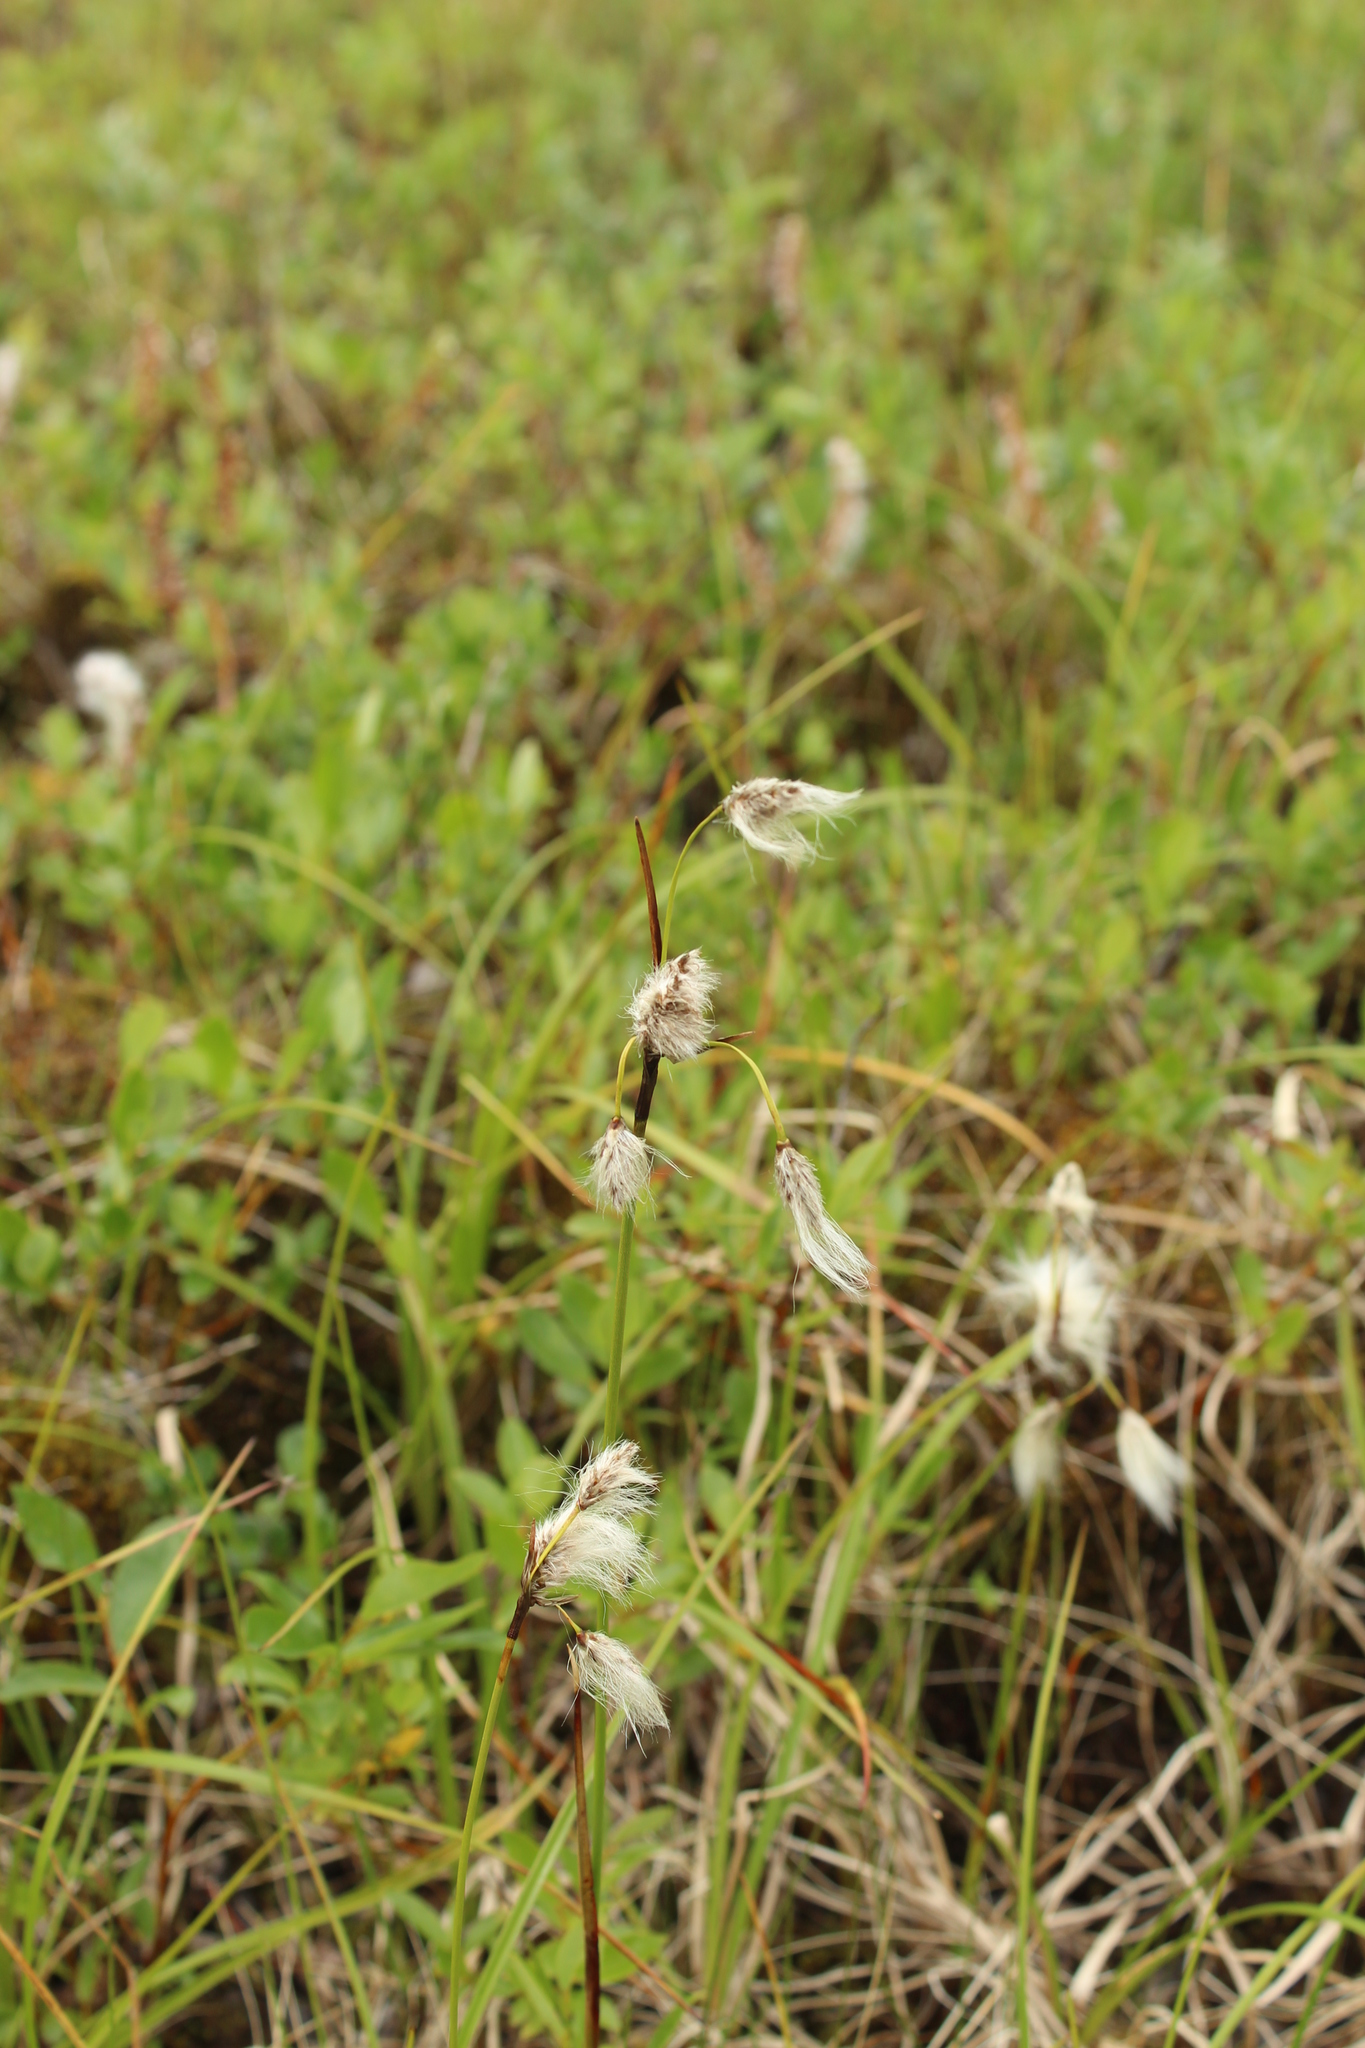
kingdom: Plantae
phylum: Tracheophyta
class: Liliopsida
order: Poales
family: Cyperaceae
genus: Eriophorum
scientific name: Eriophorum angustifolium
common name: Common cottongrass
